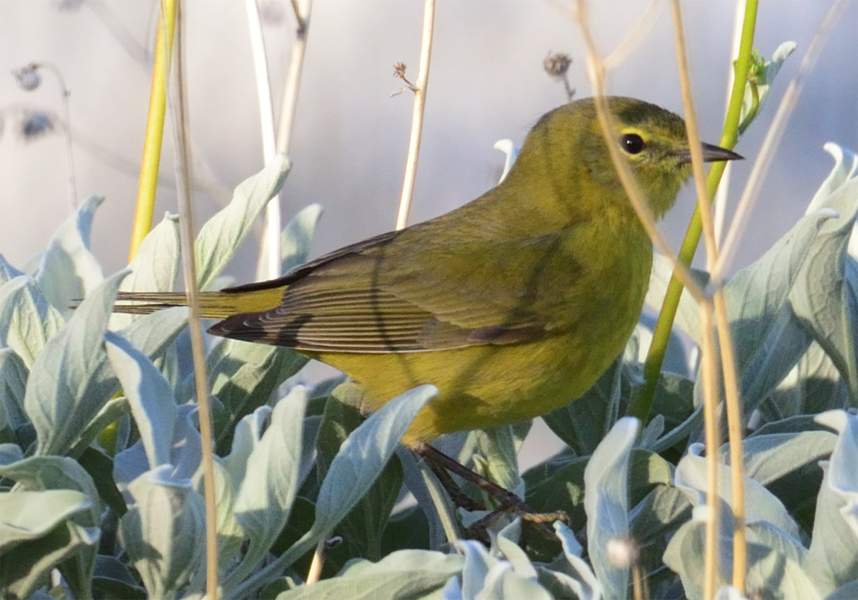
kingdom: Animalia
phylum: Chordata
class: Aves
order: Passeriformes
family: Parulidae
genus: Leiothlypis
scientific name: Leiothlypis celata
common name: Orange-crowned warbler
